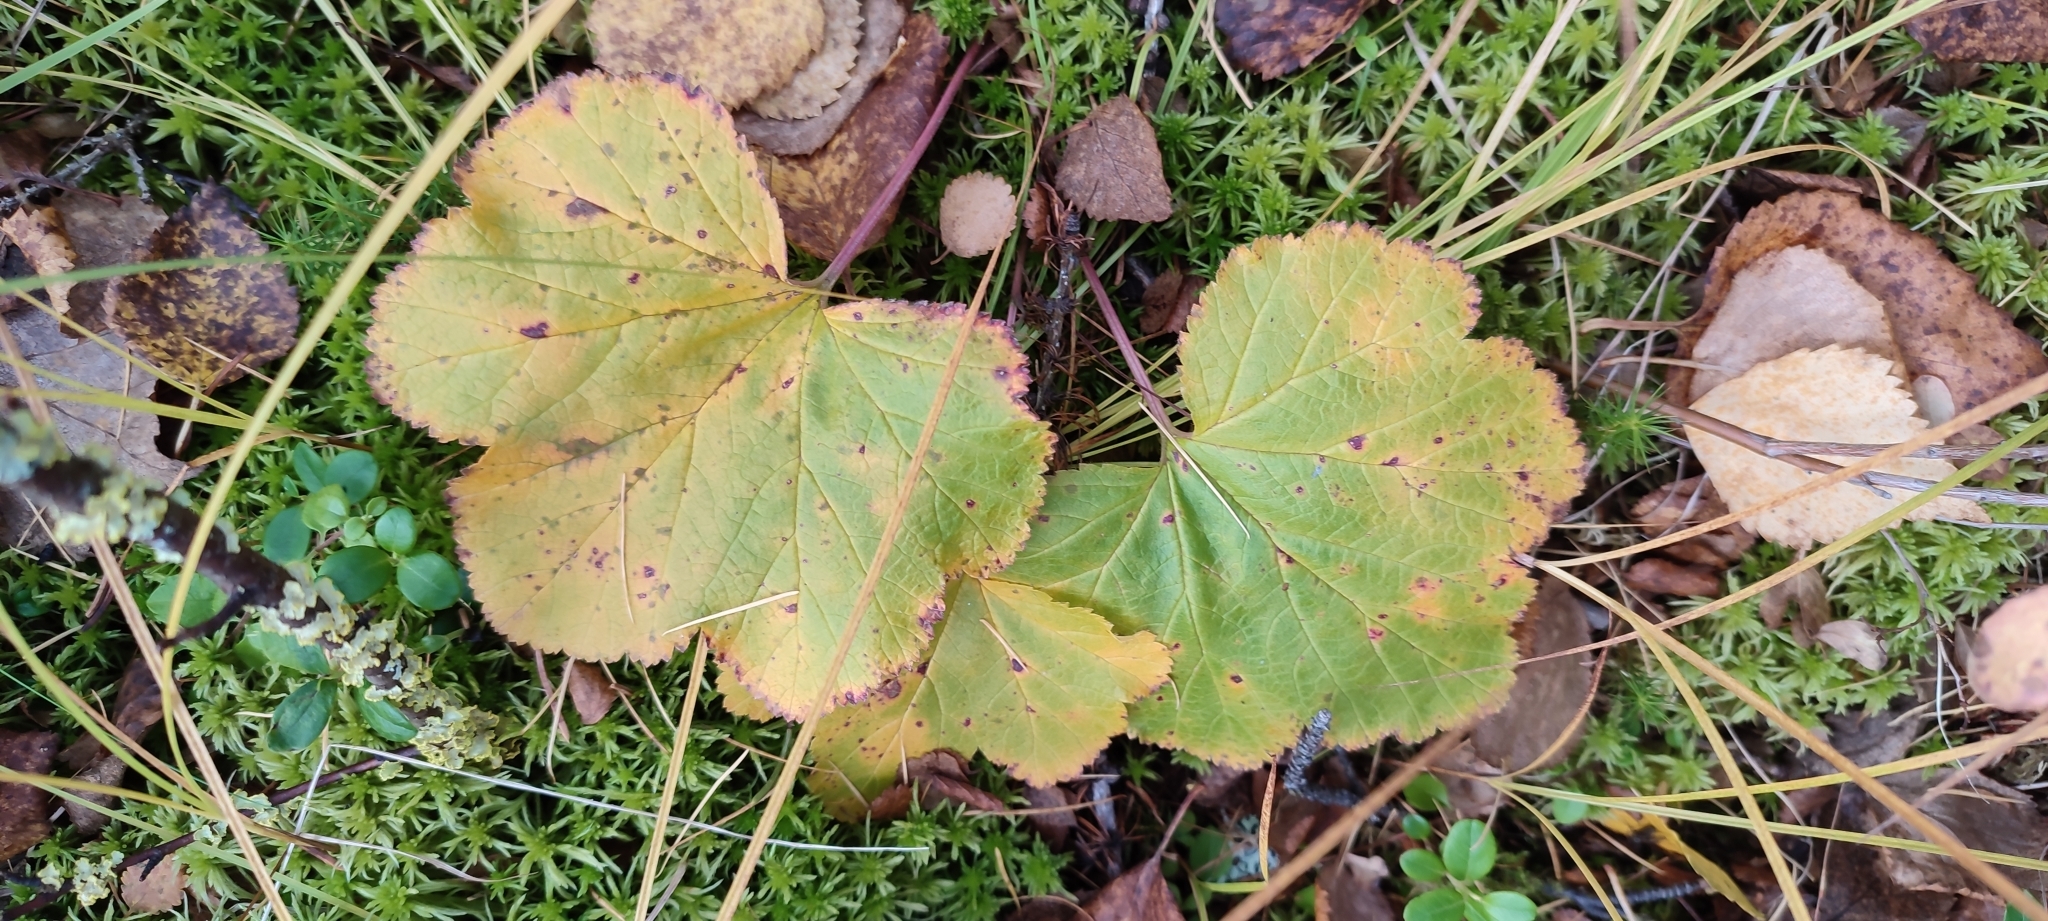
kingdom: Plantae
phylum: Tracheophyta
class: Magnoliopsida
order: Rosales
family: Rosaceae
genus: Rubus
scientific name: Rubus chamaemorus
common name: Cloudberry
